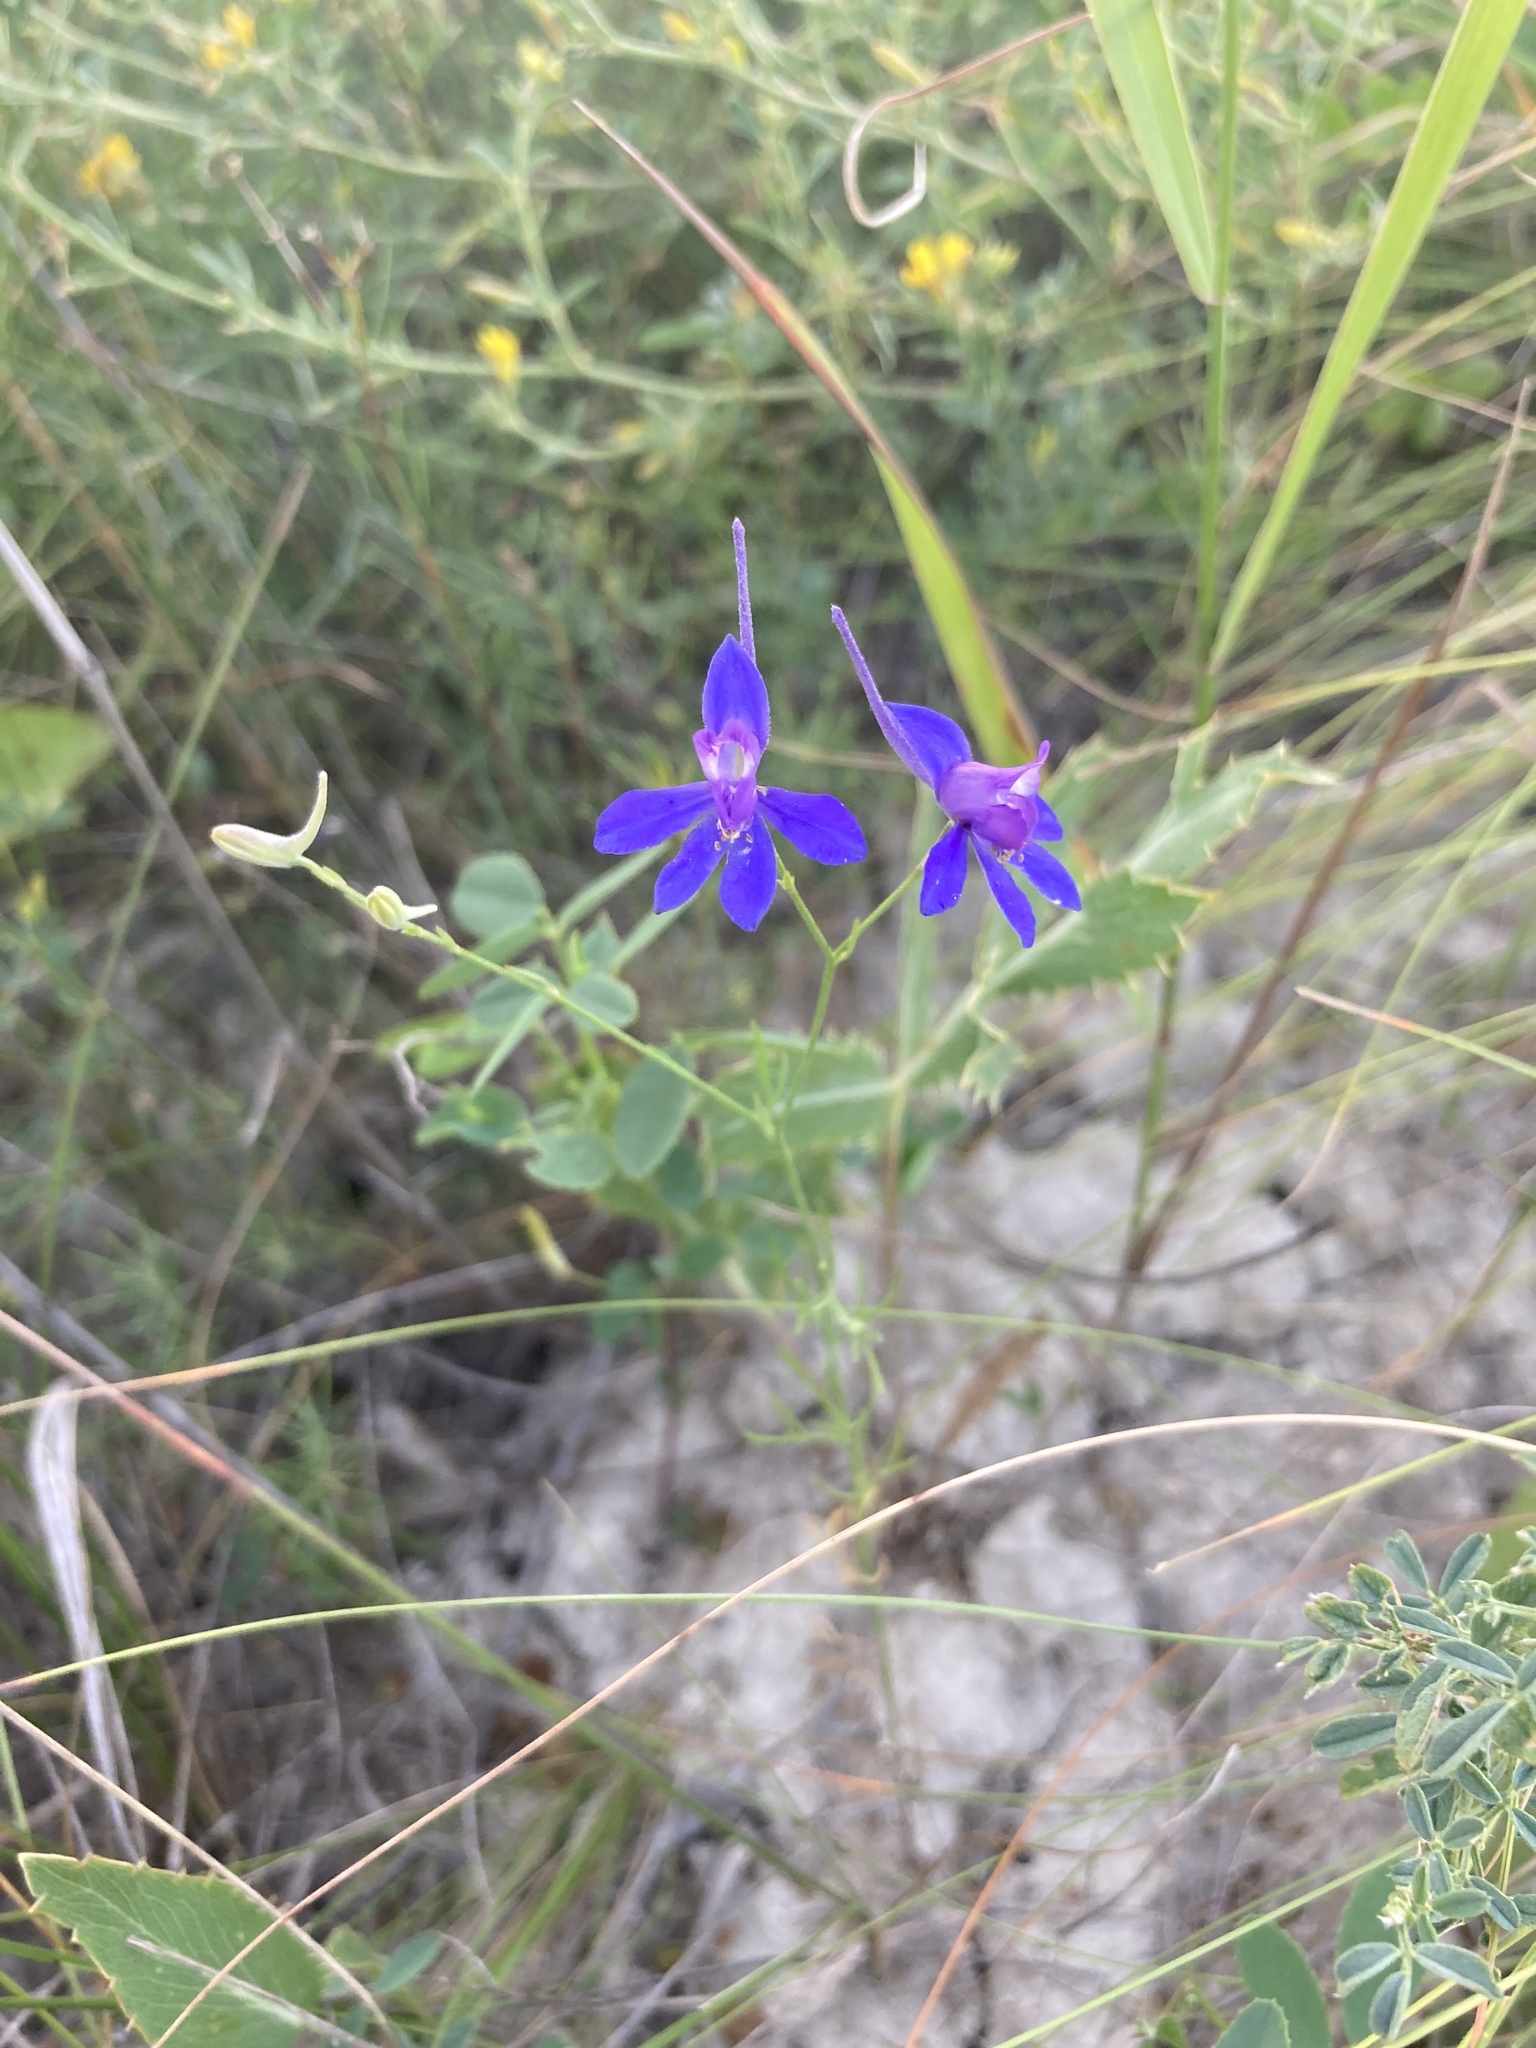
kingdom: Plantae
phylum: Tracheophyta
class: Magnoliopsida
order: Ranunculales
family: Ranunculaceae
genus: Delphinium
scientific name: Delphinium consolida
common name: Branching larkspur
